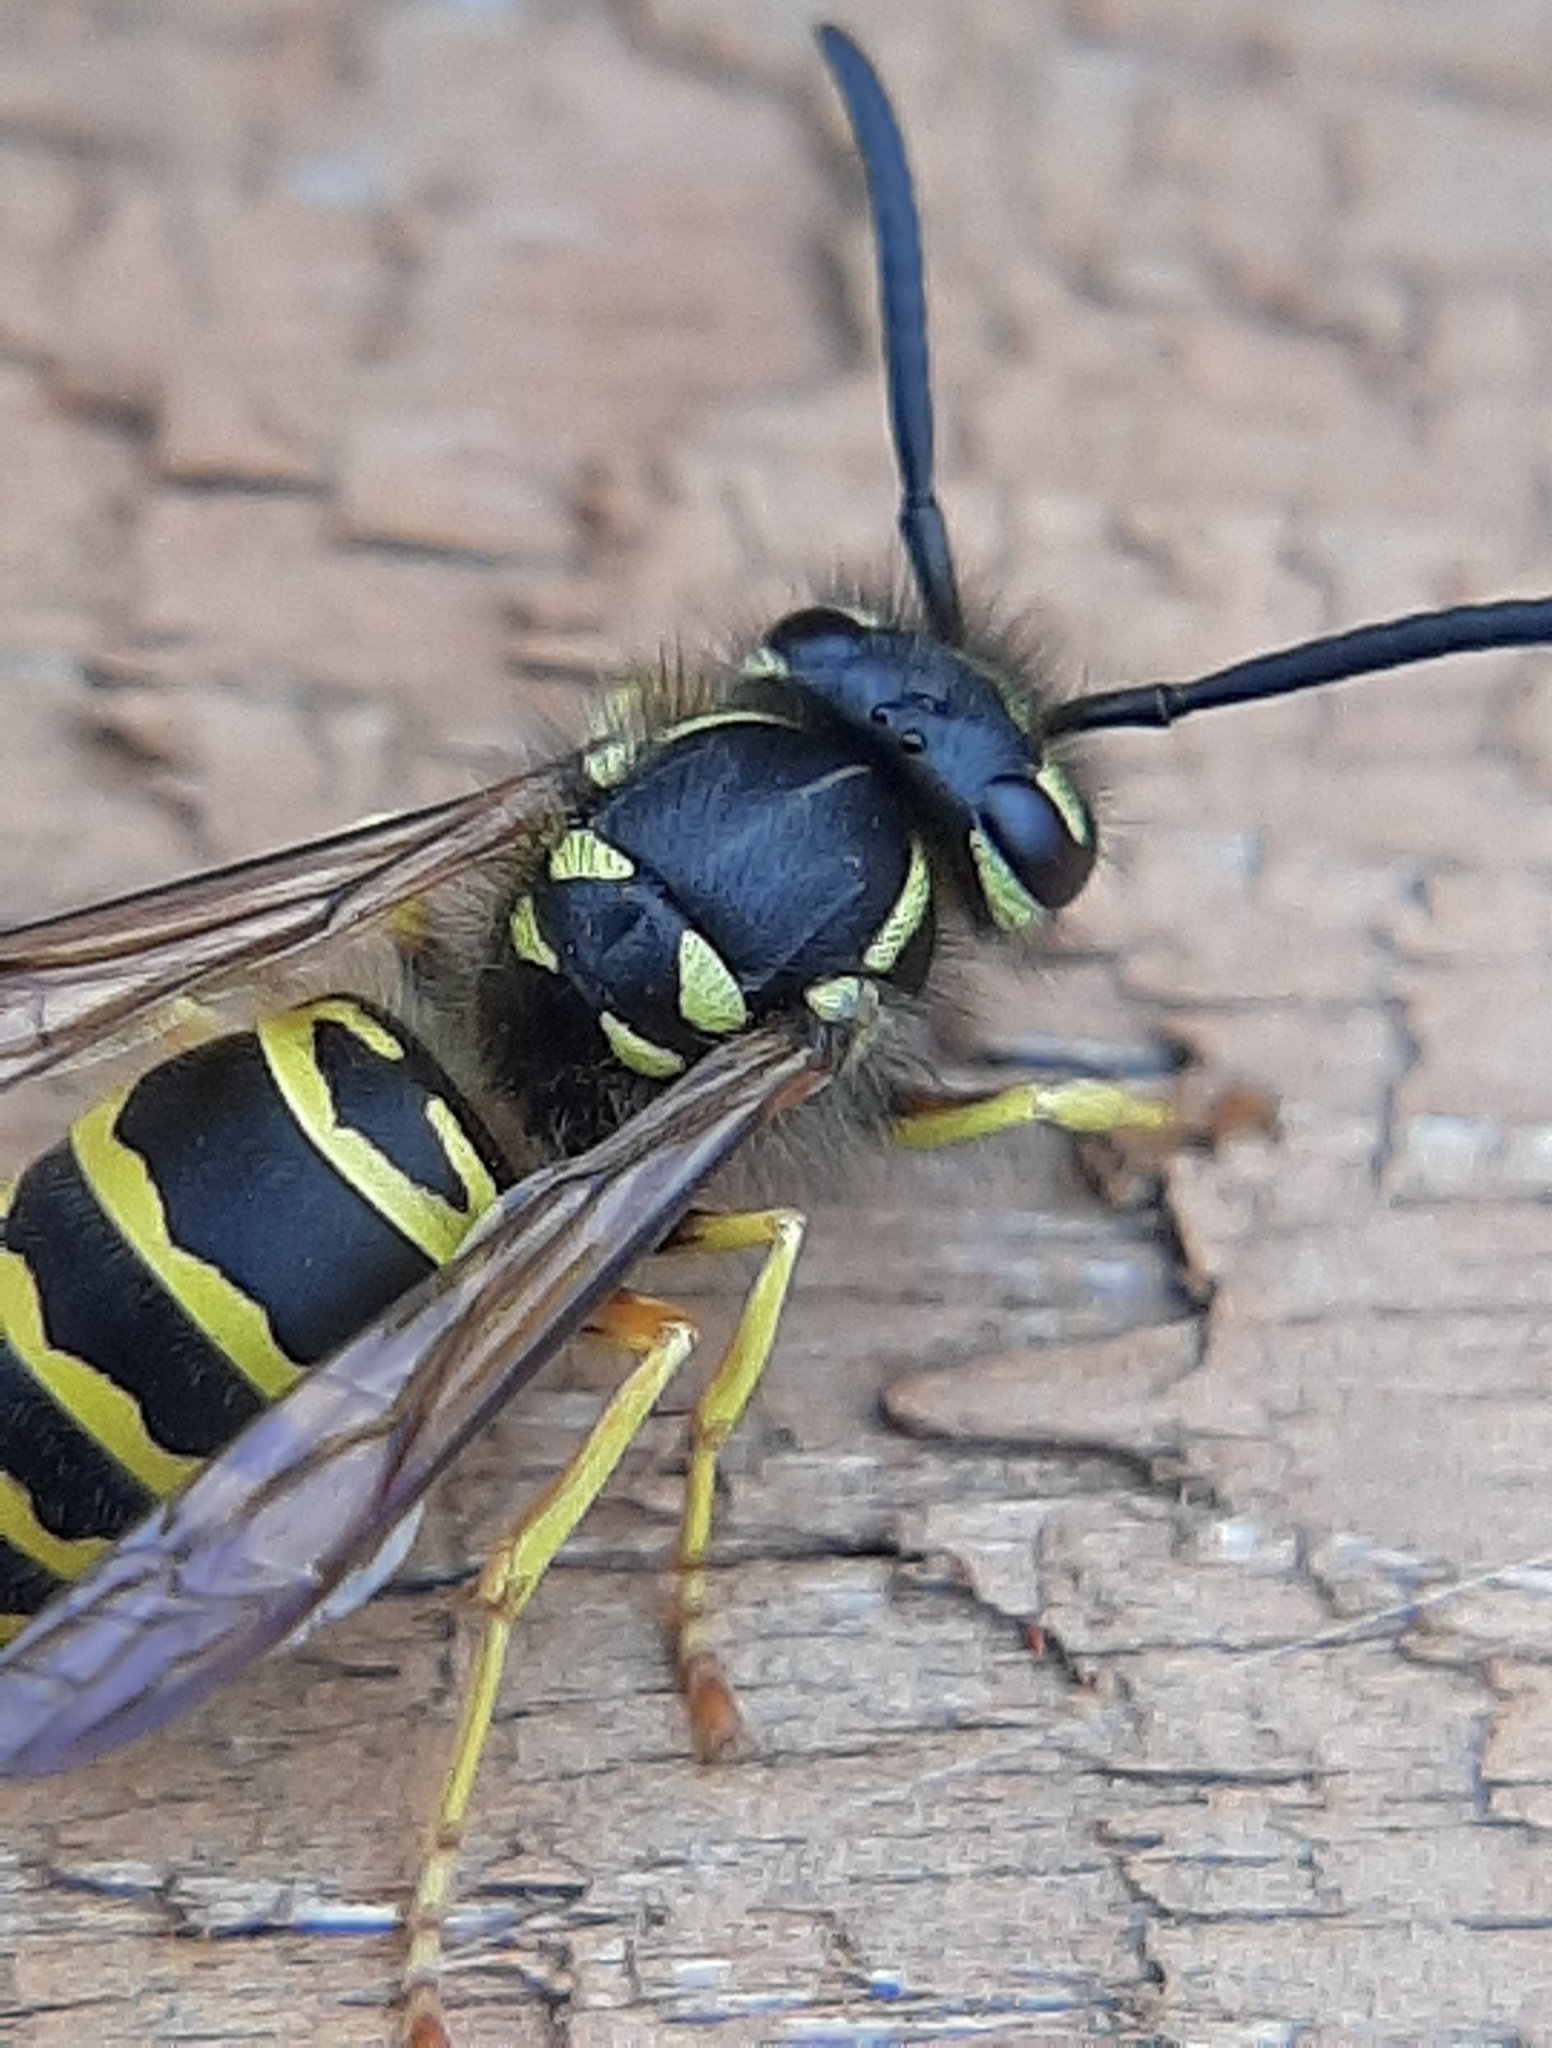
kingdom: Animalia
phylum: Arthropoda
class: Insecta
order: Hymenoptera
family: Vespidae
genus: Vespula
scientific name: Vespula maculifrons
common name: Eastern yellowjacket
